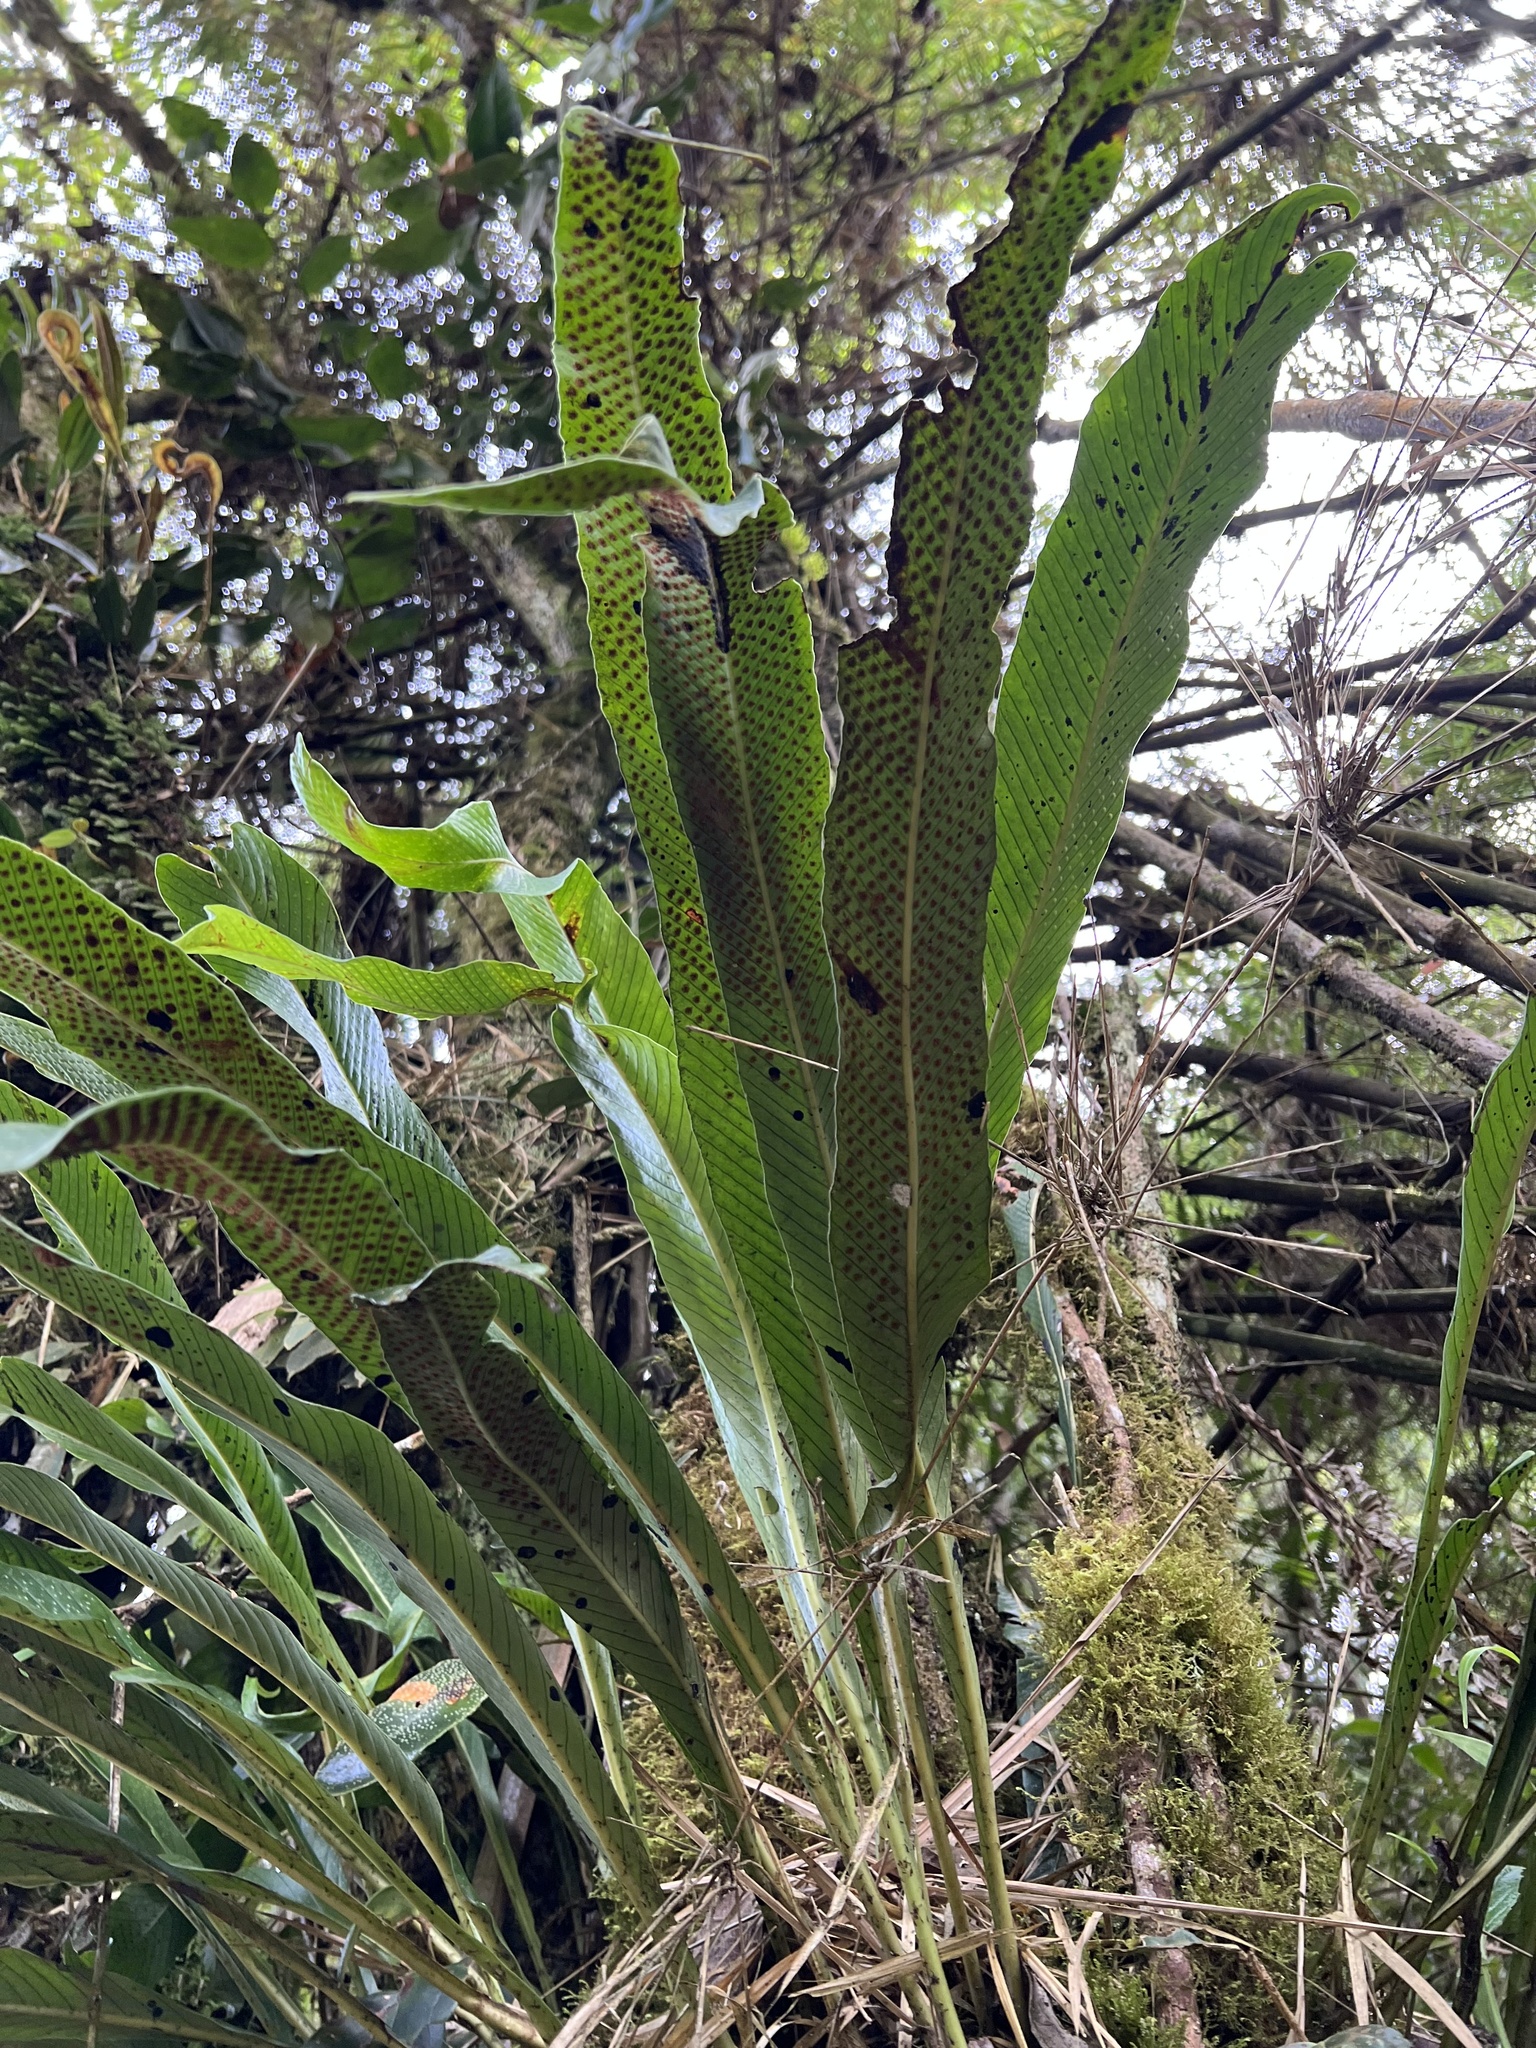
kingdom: Plantae
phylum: Tracheophyta
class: Polypodiopsida
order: Polypodiales
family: Polypodiaceae
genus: Niphidium
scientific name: Niphidium crassifolium
